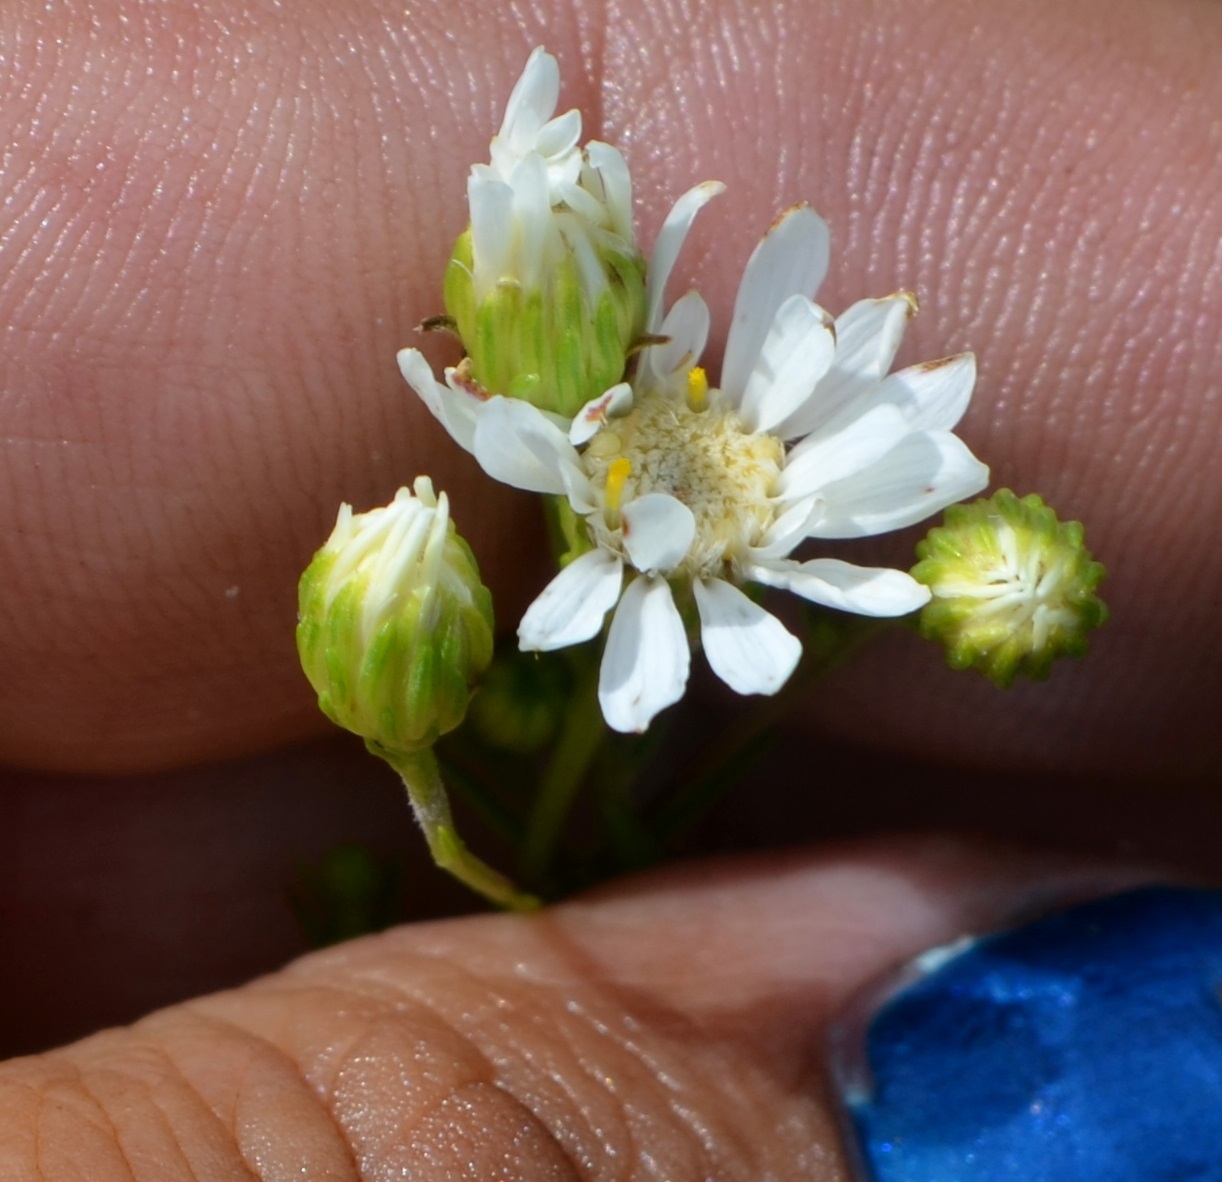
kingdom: Plantae
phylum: Tracheophyta
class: Magnoliopsida
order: Asterales
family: Asteraceae
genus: Solidago
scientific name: Solidago ptarmicoides
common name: White flat-top goldenrod
